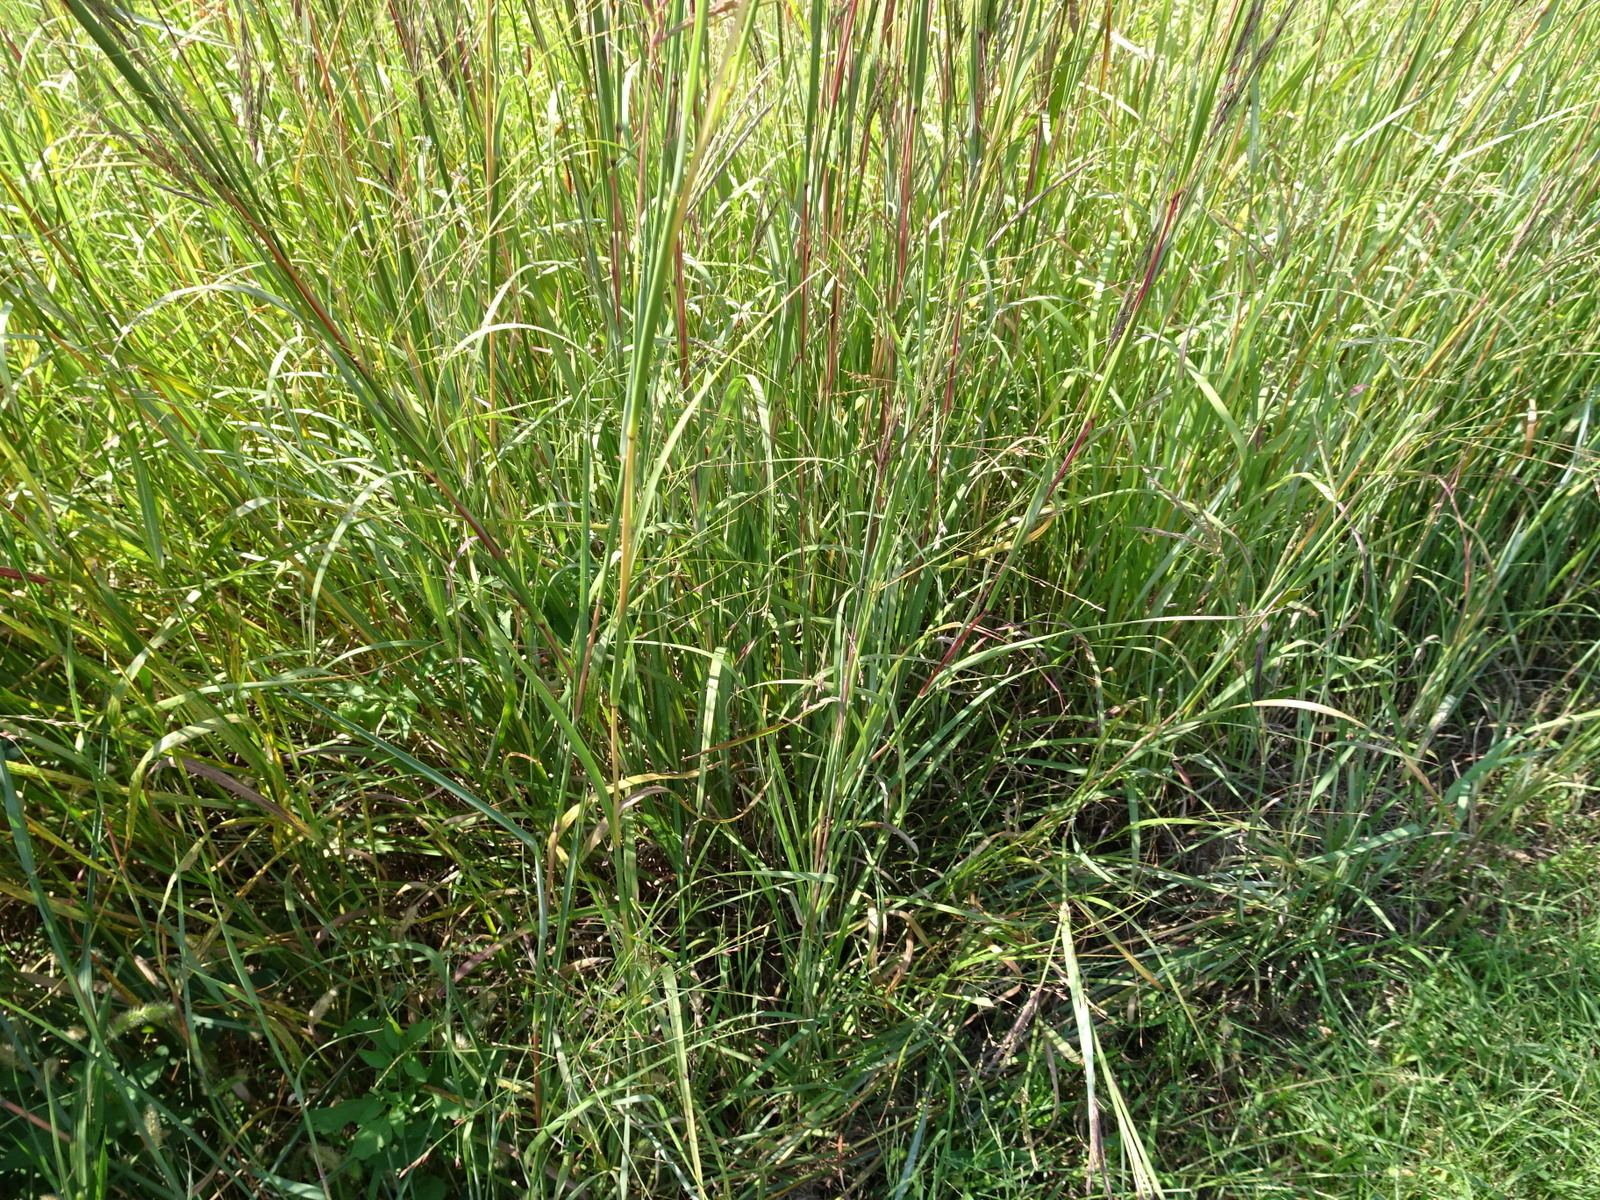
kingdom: Plantae
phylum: Tracheophyta
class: Liliopsida
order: Poales
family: Poaceae
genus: Andropogon
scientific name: Andropogon gerardi
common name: Big bluestem
